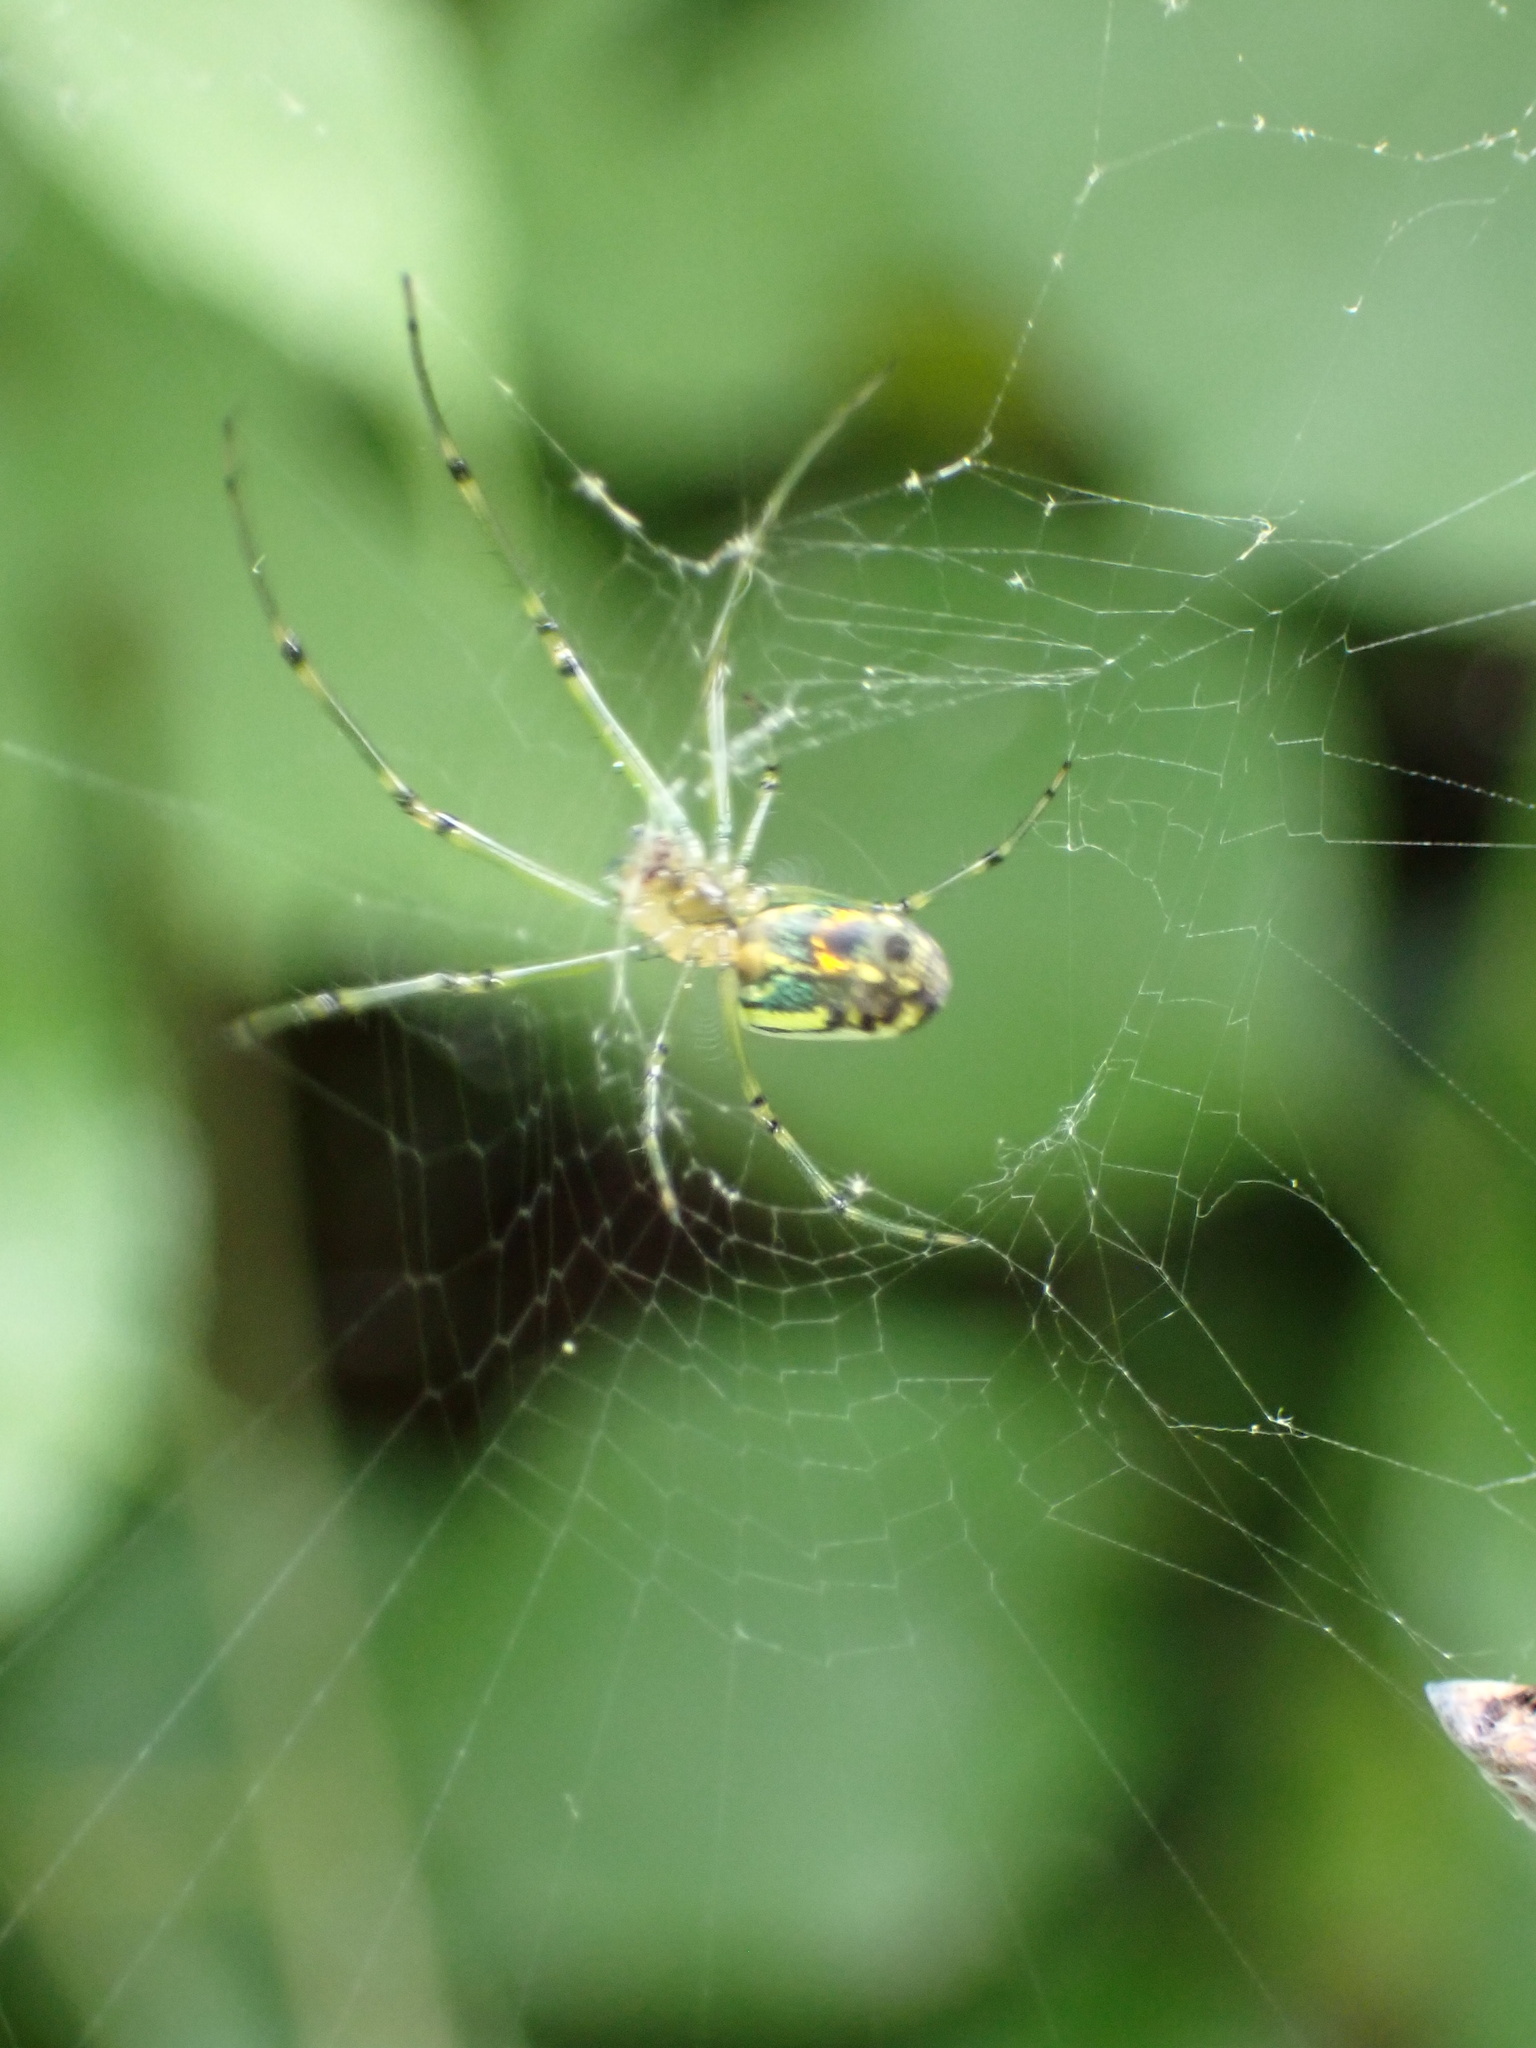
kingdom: Animalia
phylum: Arthropoda
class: Arachnida
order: Araneae
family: Tetragnathidae
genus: Leucauge
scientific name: Leucauge venusta
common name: Longjawed orb weavers
